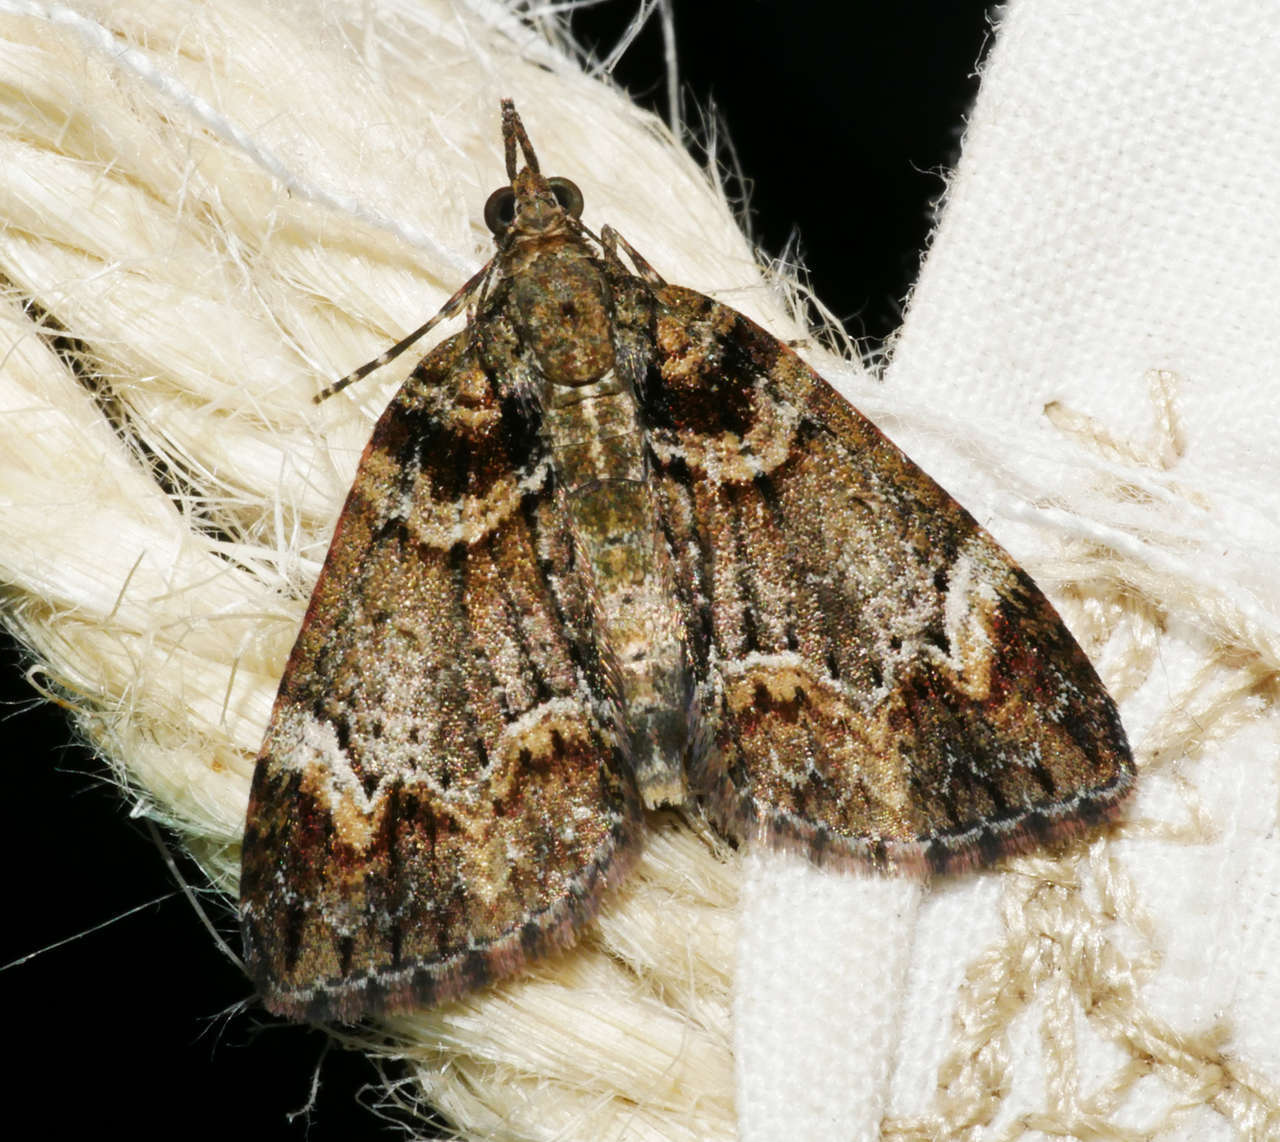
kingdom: Animalia
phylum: Arthropoda
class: Insecta
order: Lepidoptera
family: Geometridae
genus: Microdes
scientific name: Microdes diplodonta
